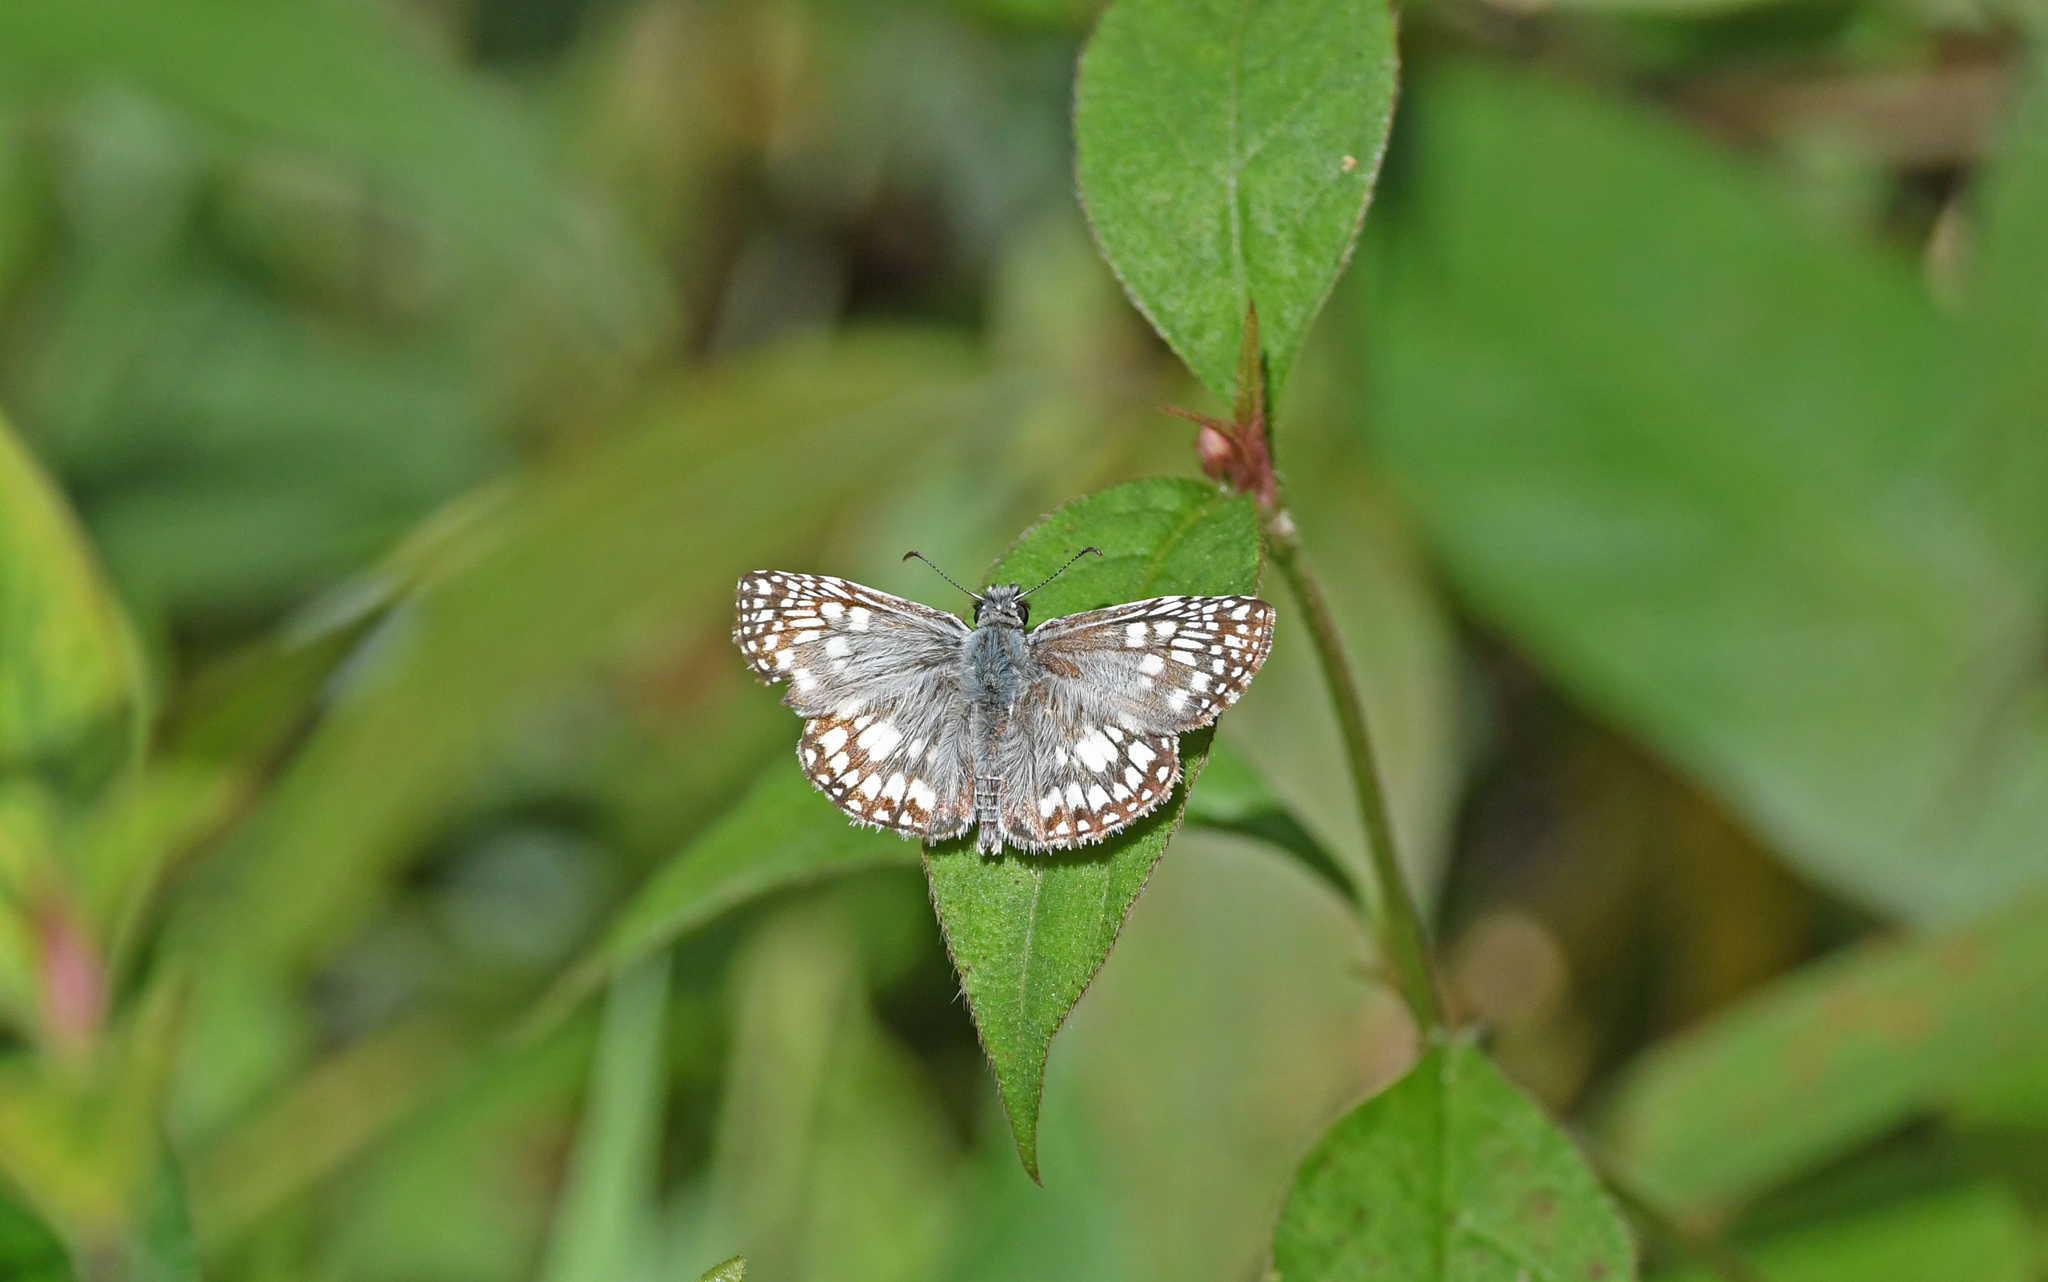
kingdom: Animalia
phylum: Arthropoda
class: Insecta
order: Lepidoptera
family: Hesperiidae
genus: Pyrgus
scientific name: Pyrgus oileus
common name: Tropical checkered-skipper
